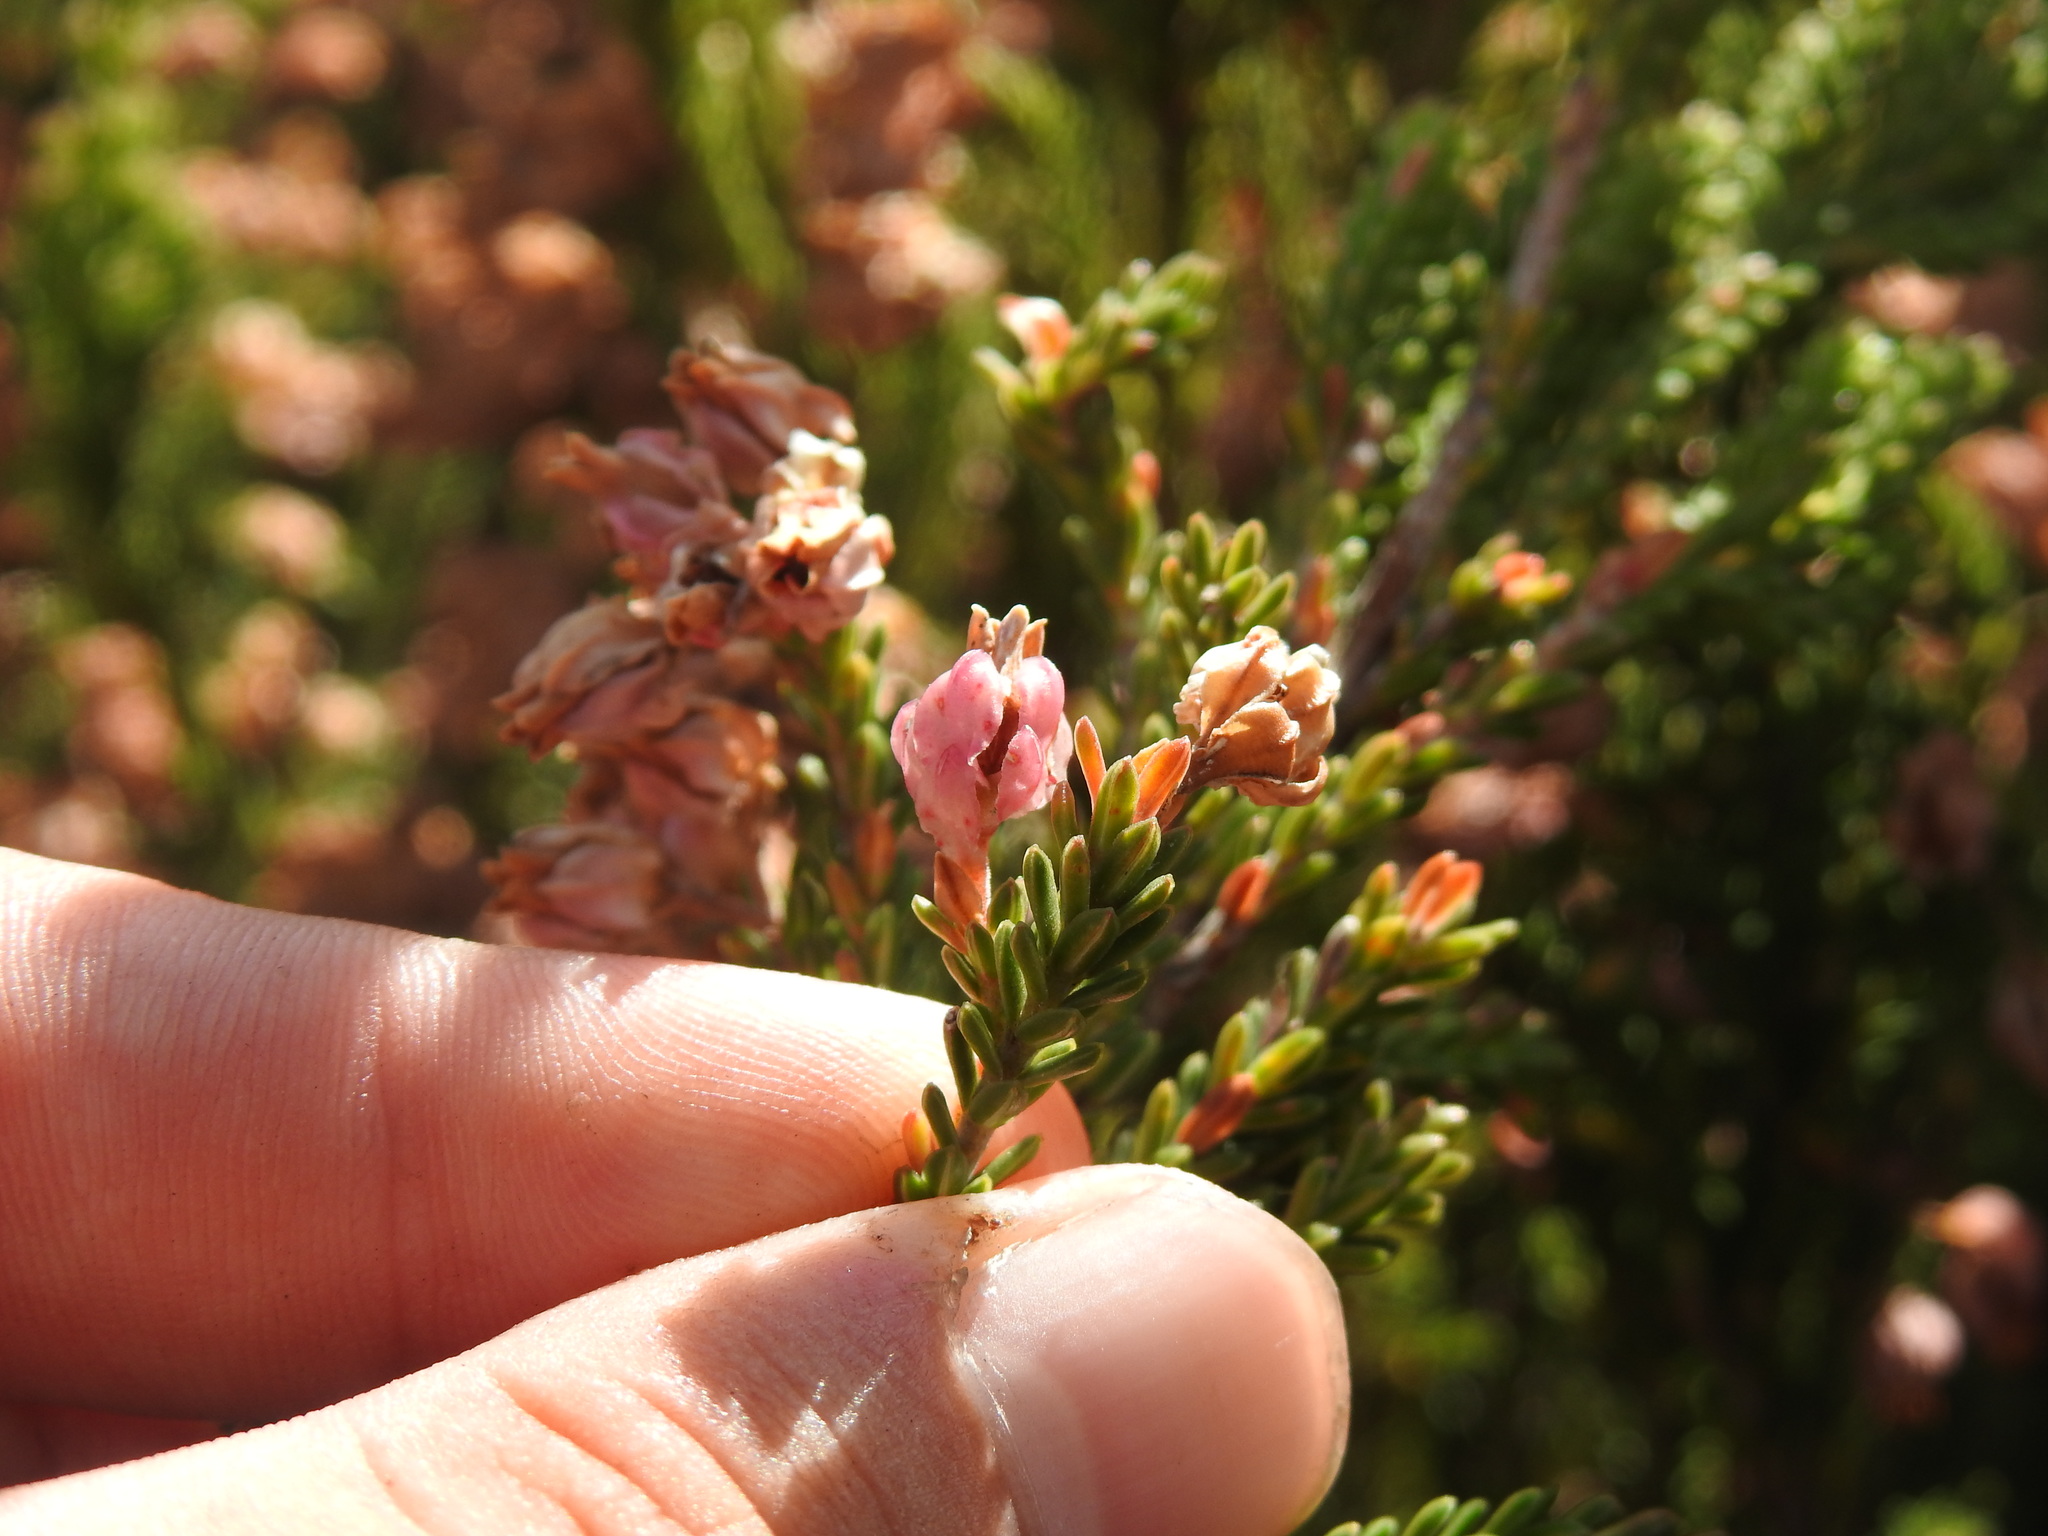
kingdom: Plantae
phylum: Tracheophyta
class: Magnoliopsida
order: Ericales
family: Ericaceae
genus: Erica
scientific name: Erica tegulifolia
